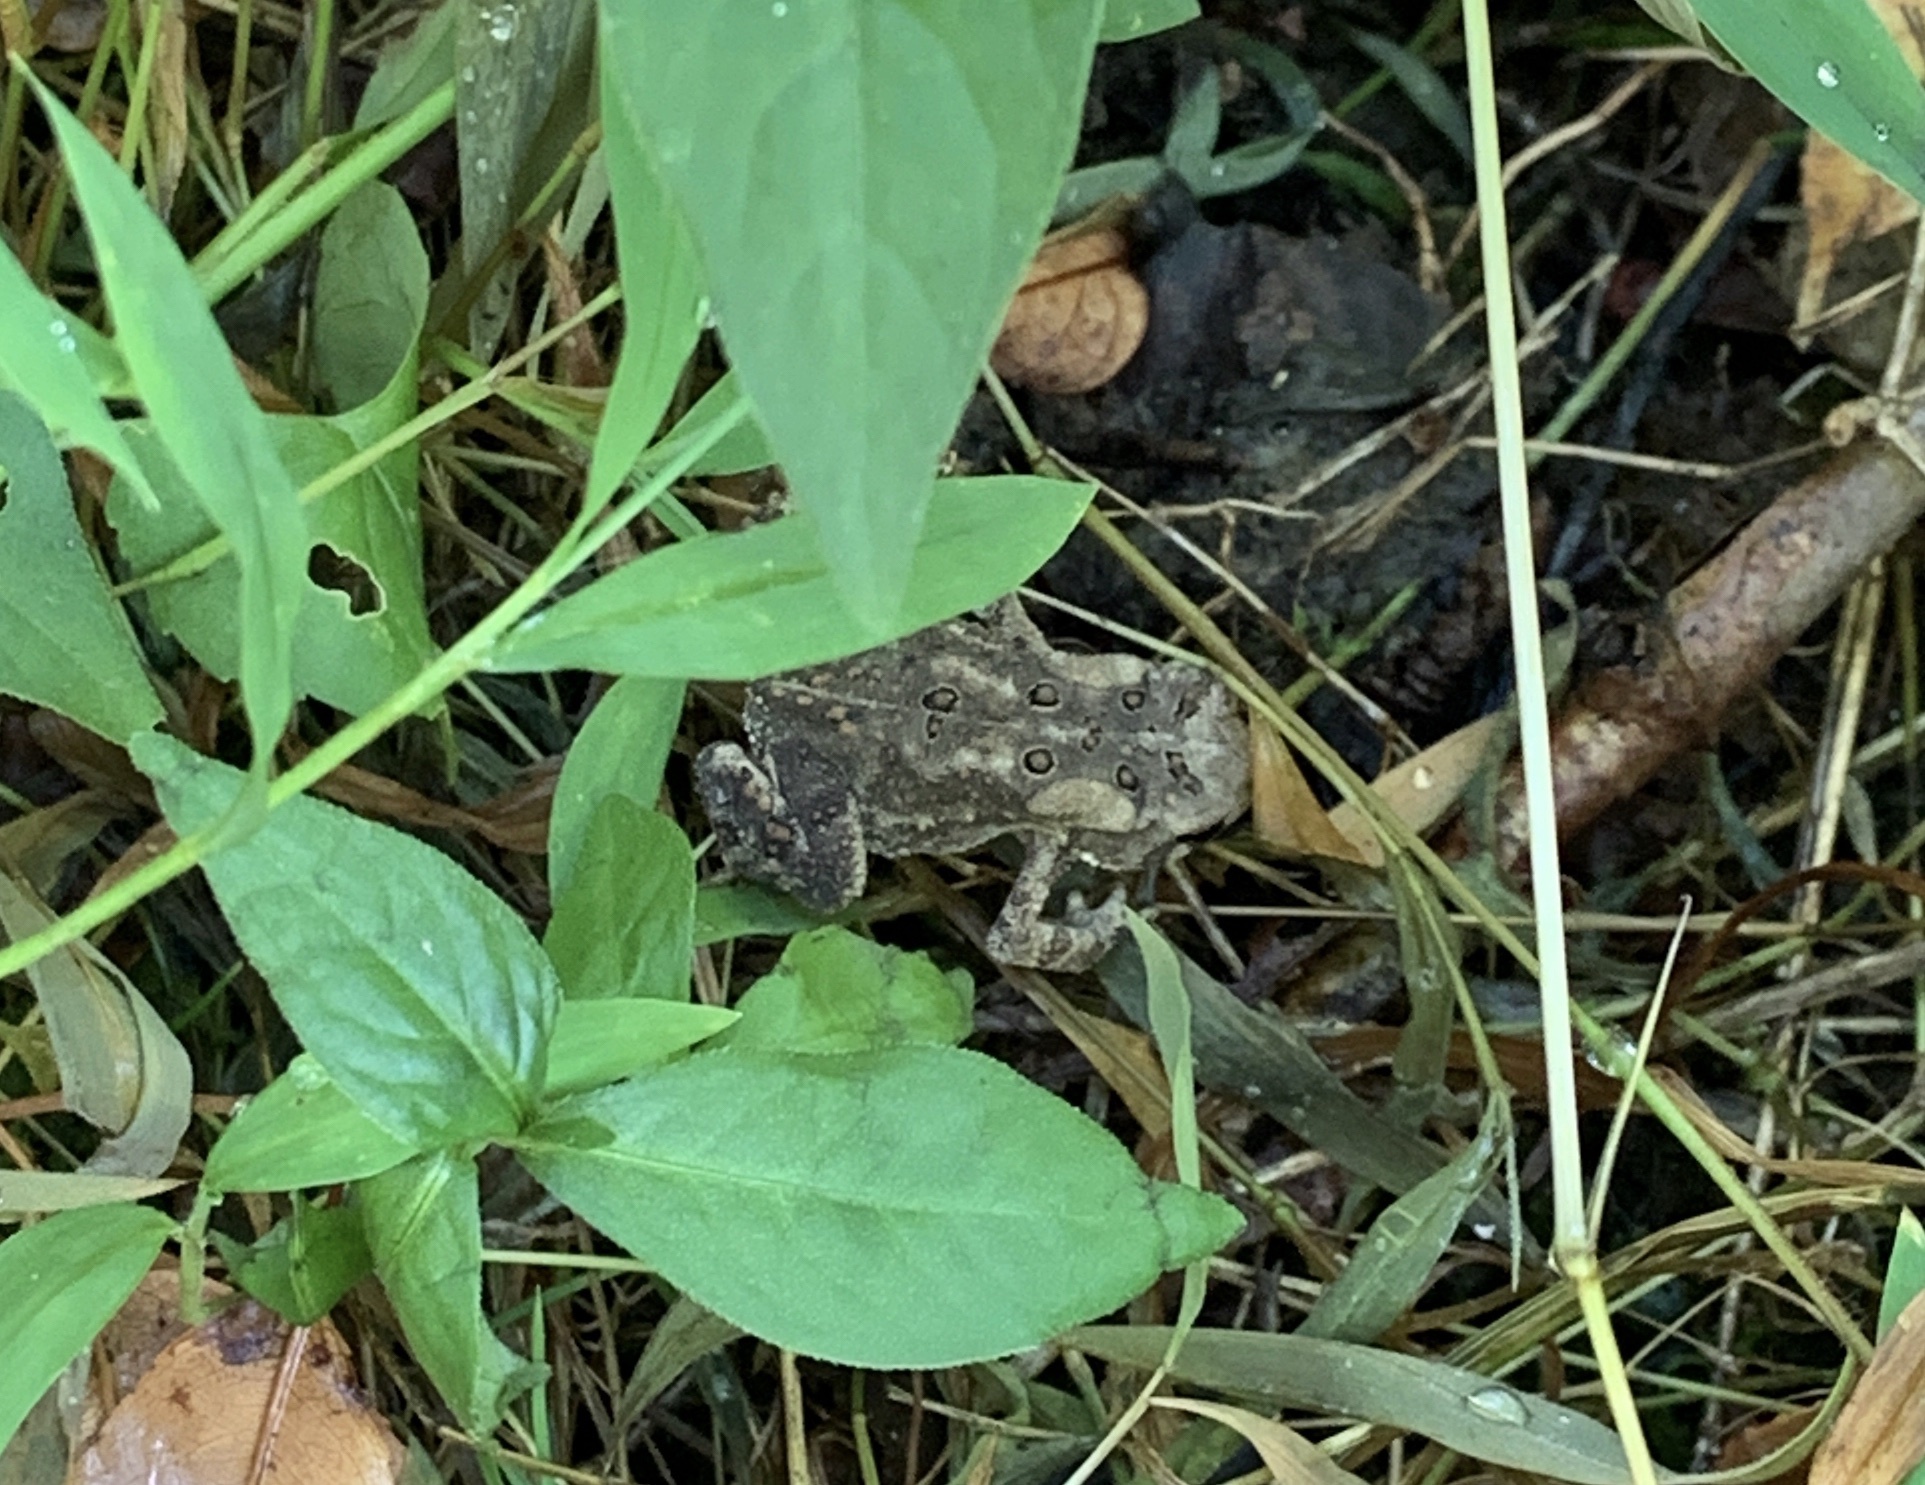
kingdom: Animalia
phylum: Chordata
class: Amphibia
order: Anura
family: Bufonidae
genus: Anaxyrus
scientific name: Anaxyrus americanus
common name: American toad
